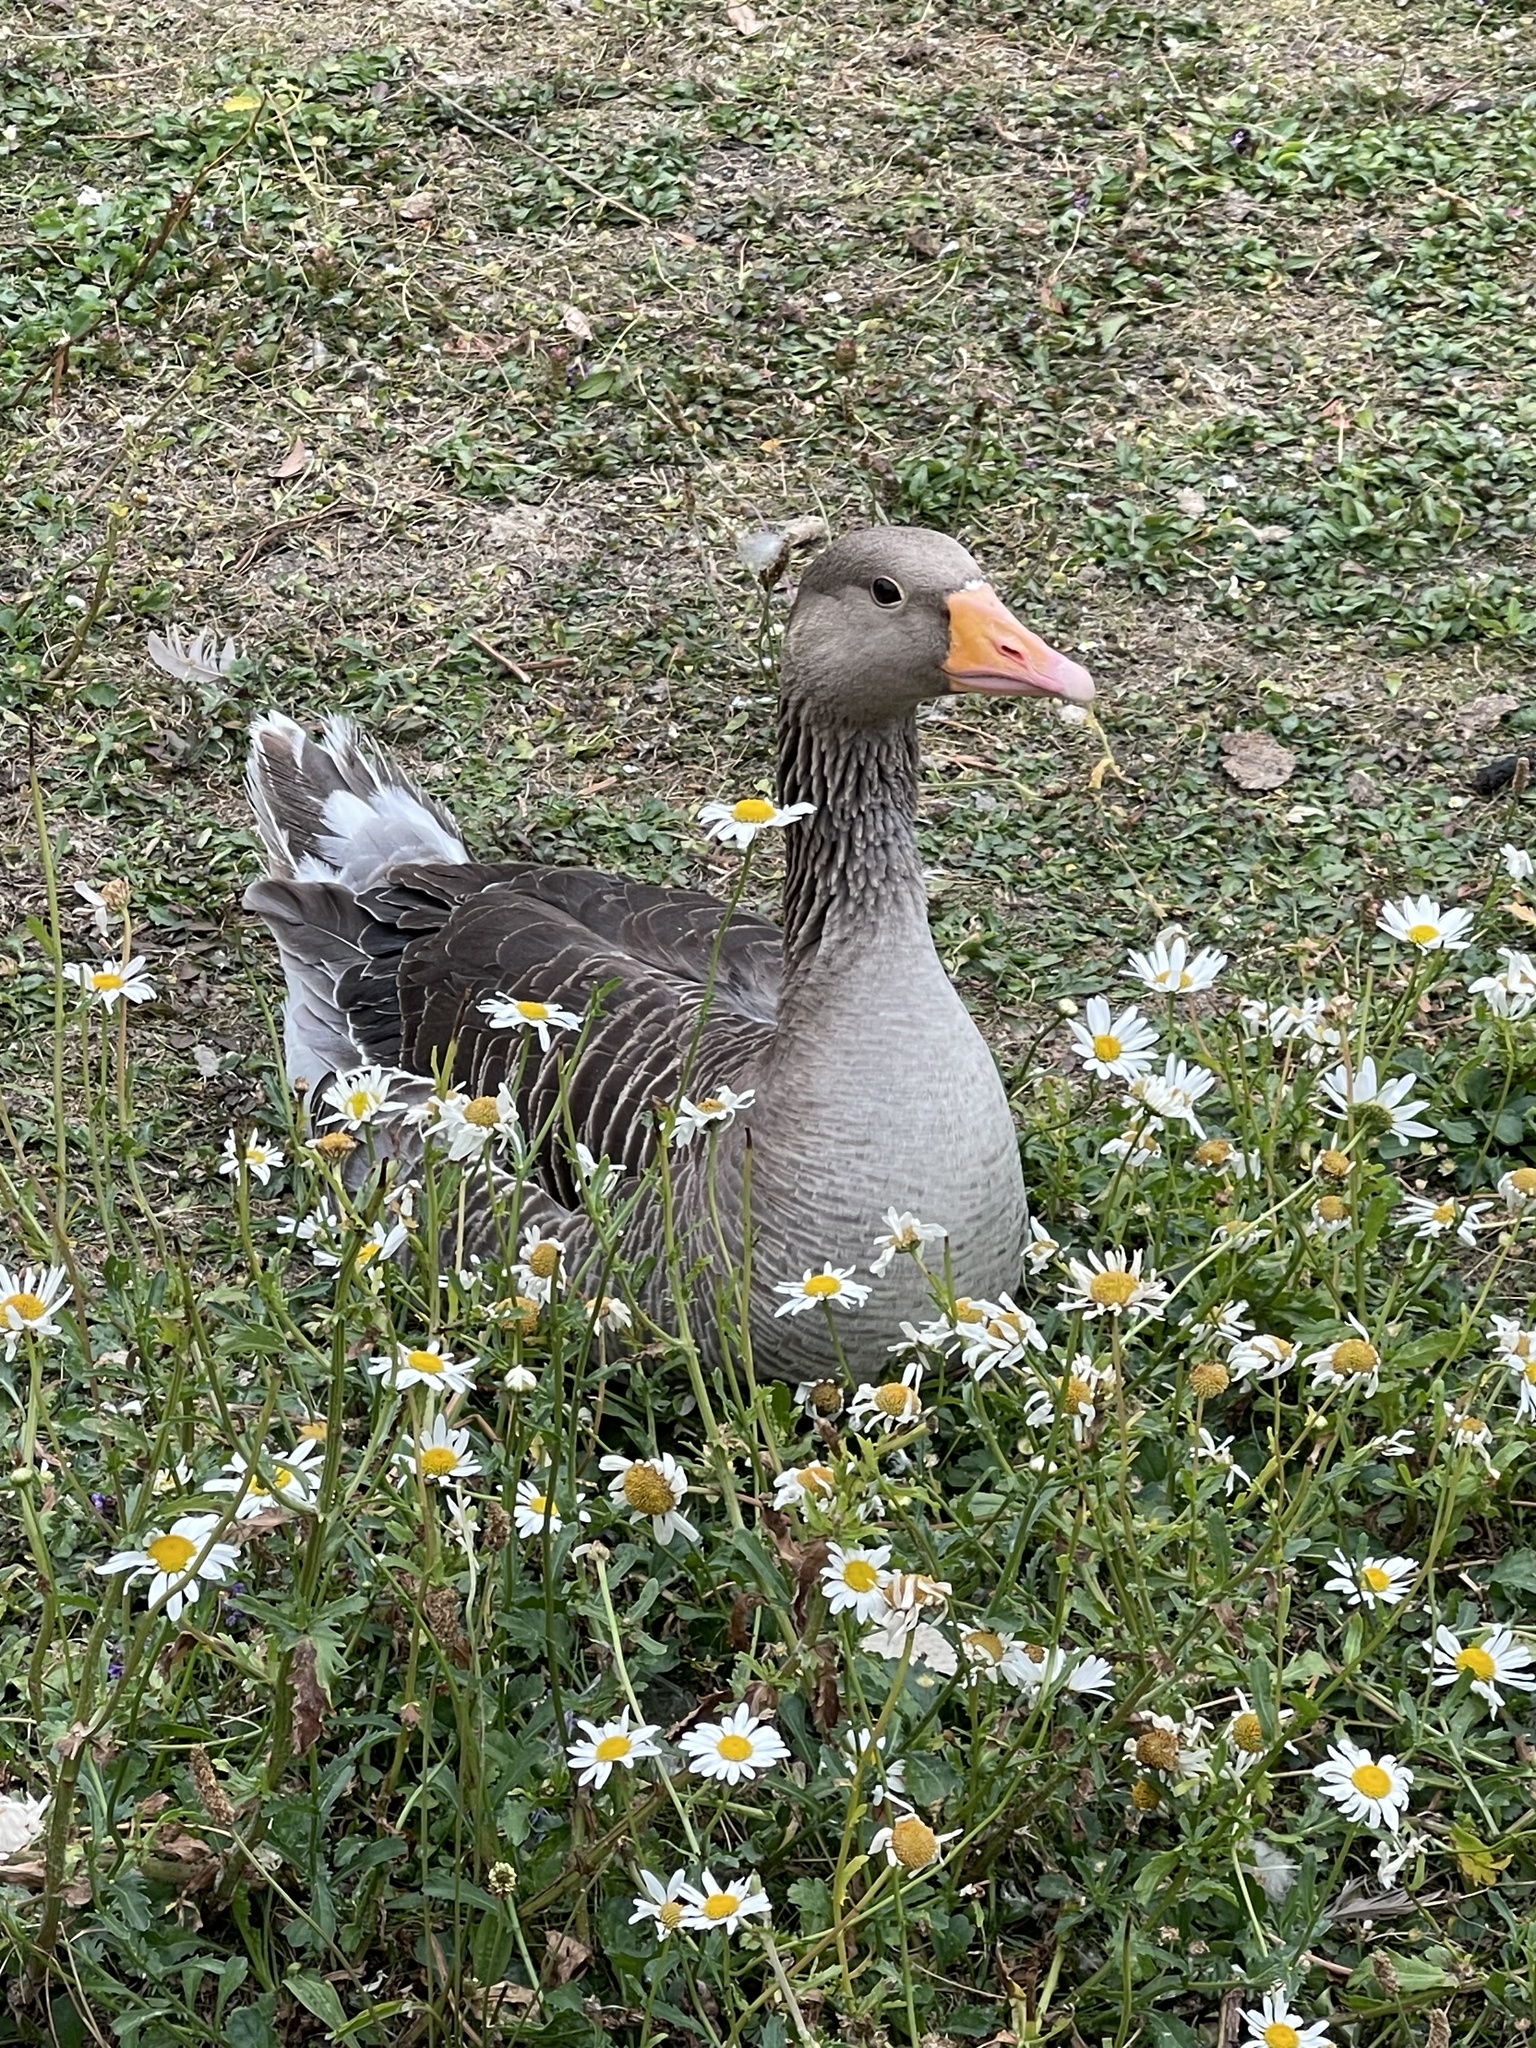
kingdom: Animalia
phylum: Chordata
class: Aves
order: Anseriformes
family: Anatidae
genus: Anser
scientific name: Anser anser
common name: Greylag goose
